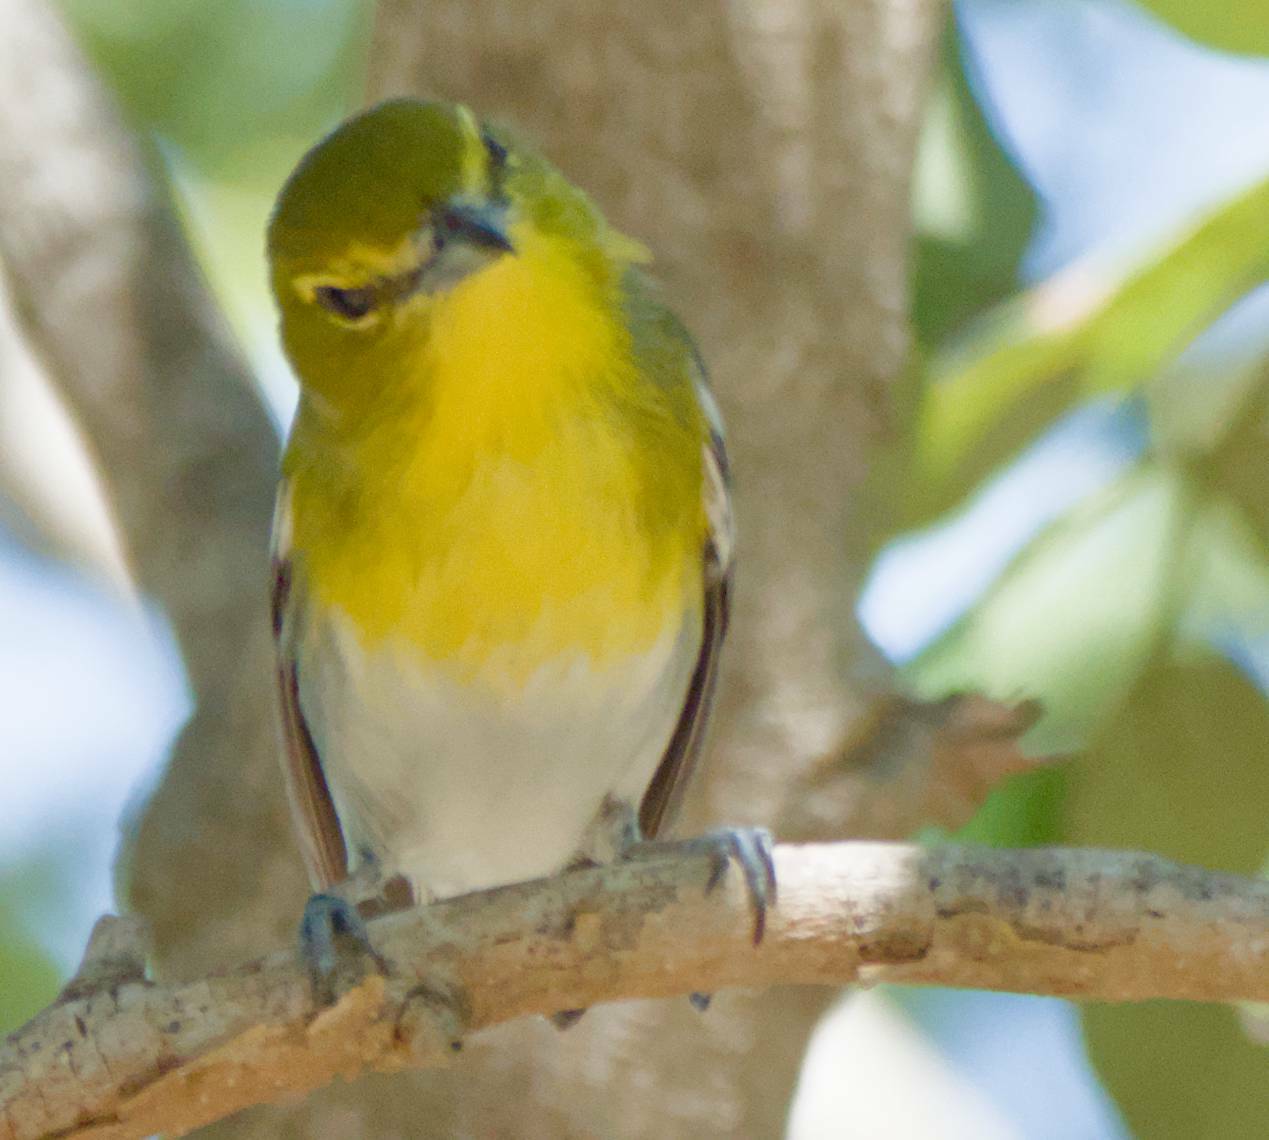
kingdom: Animalia
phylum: Chordata
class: Aves
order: Passeriformes
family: Vireonidae
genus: Vireo
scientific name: Vireo flavifrons
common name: Yellow-throated vireo
